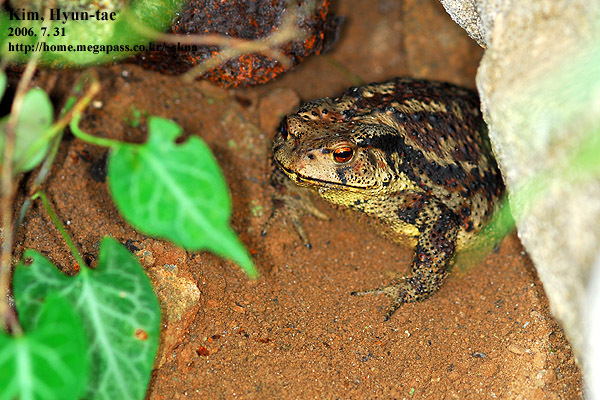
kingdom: Animalia
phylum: Chordata
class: Amphibia
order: Anura
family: Bufonidae
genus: Bufo
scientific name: Bufo gargarizans
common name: Asiatic toad
